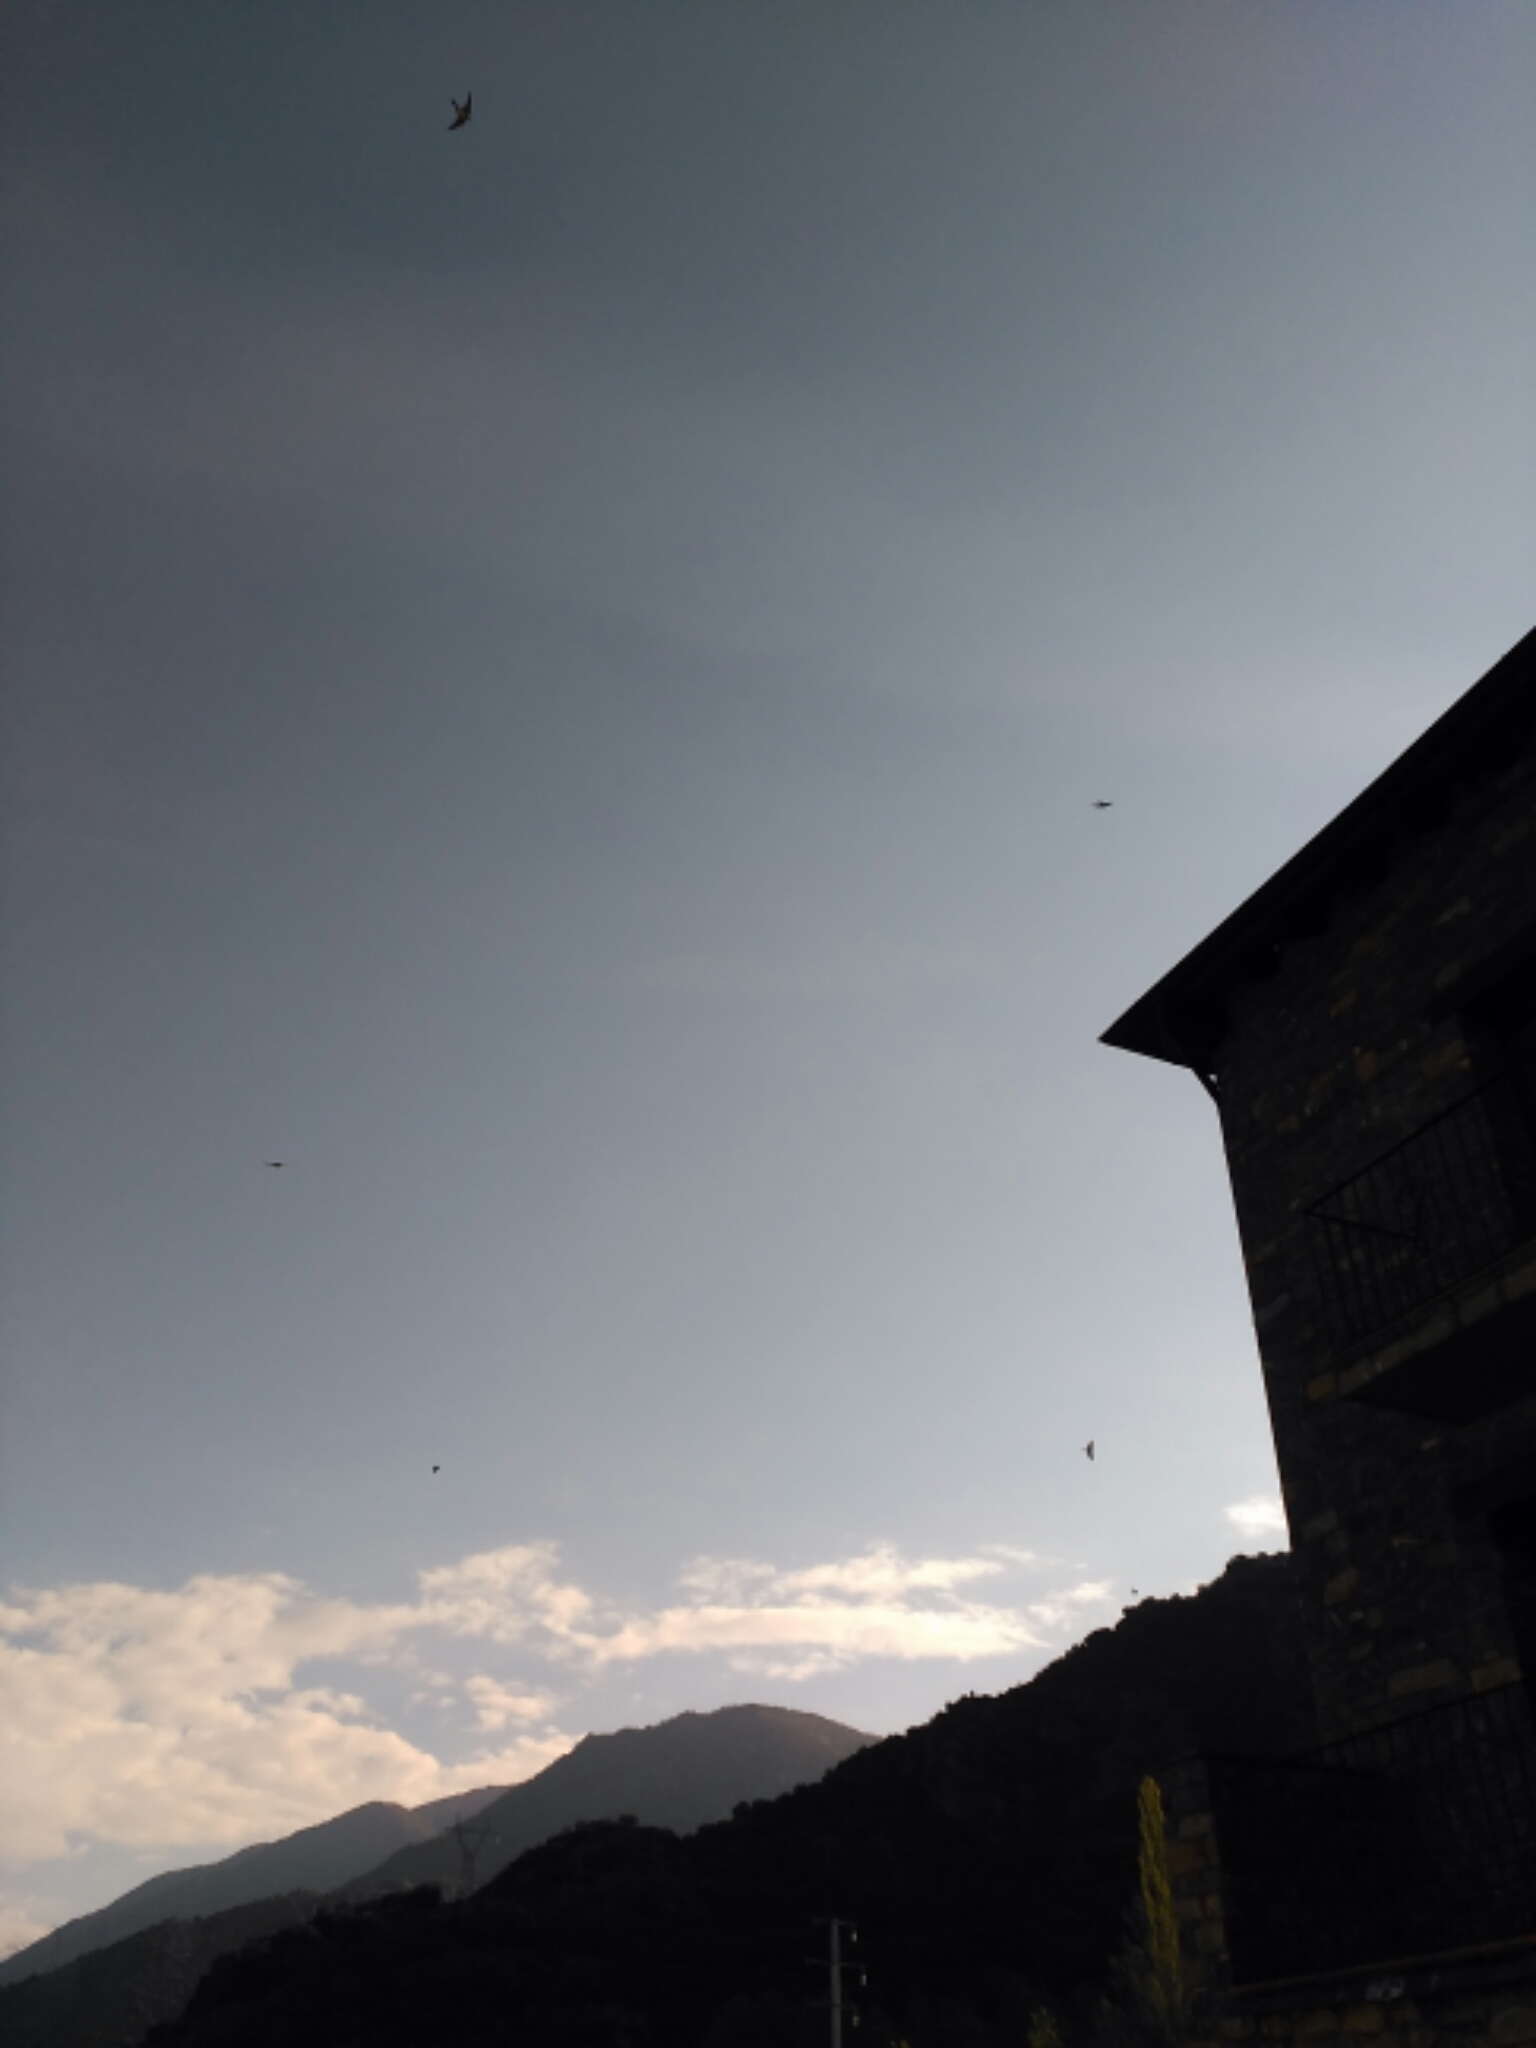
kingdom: Animalia
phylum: Chordata
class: Aves
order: Passeriformes
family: Hirundinidae
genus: Delichon
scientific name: Delichon urbicum
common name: Common house martin
